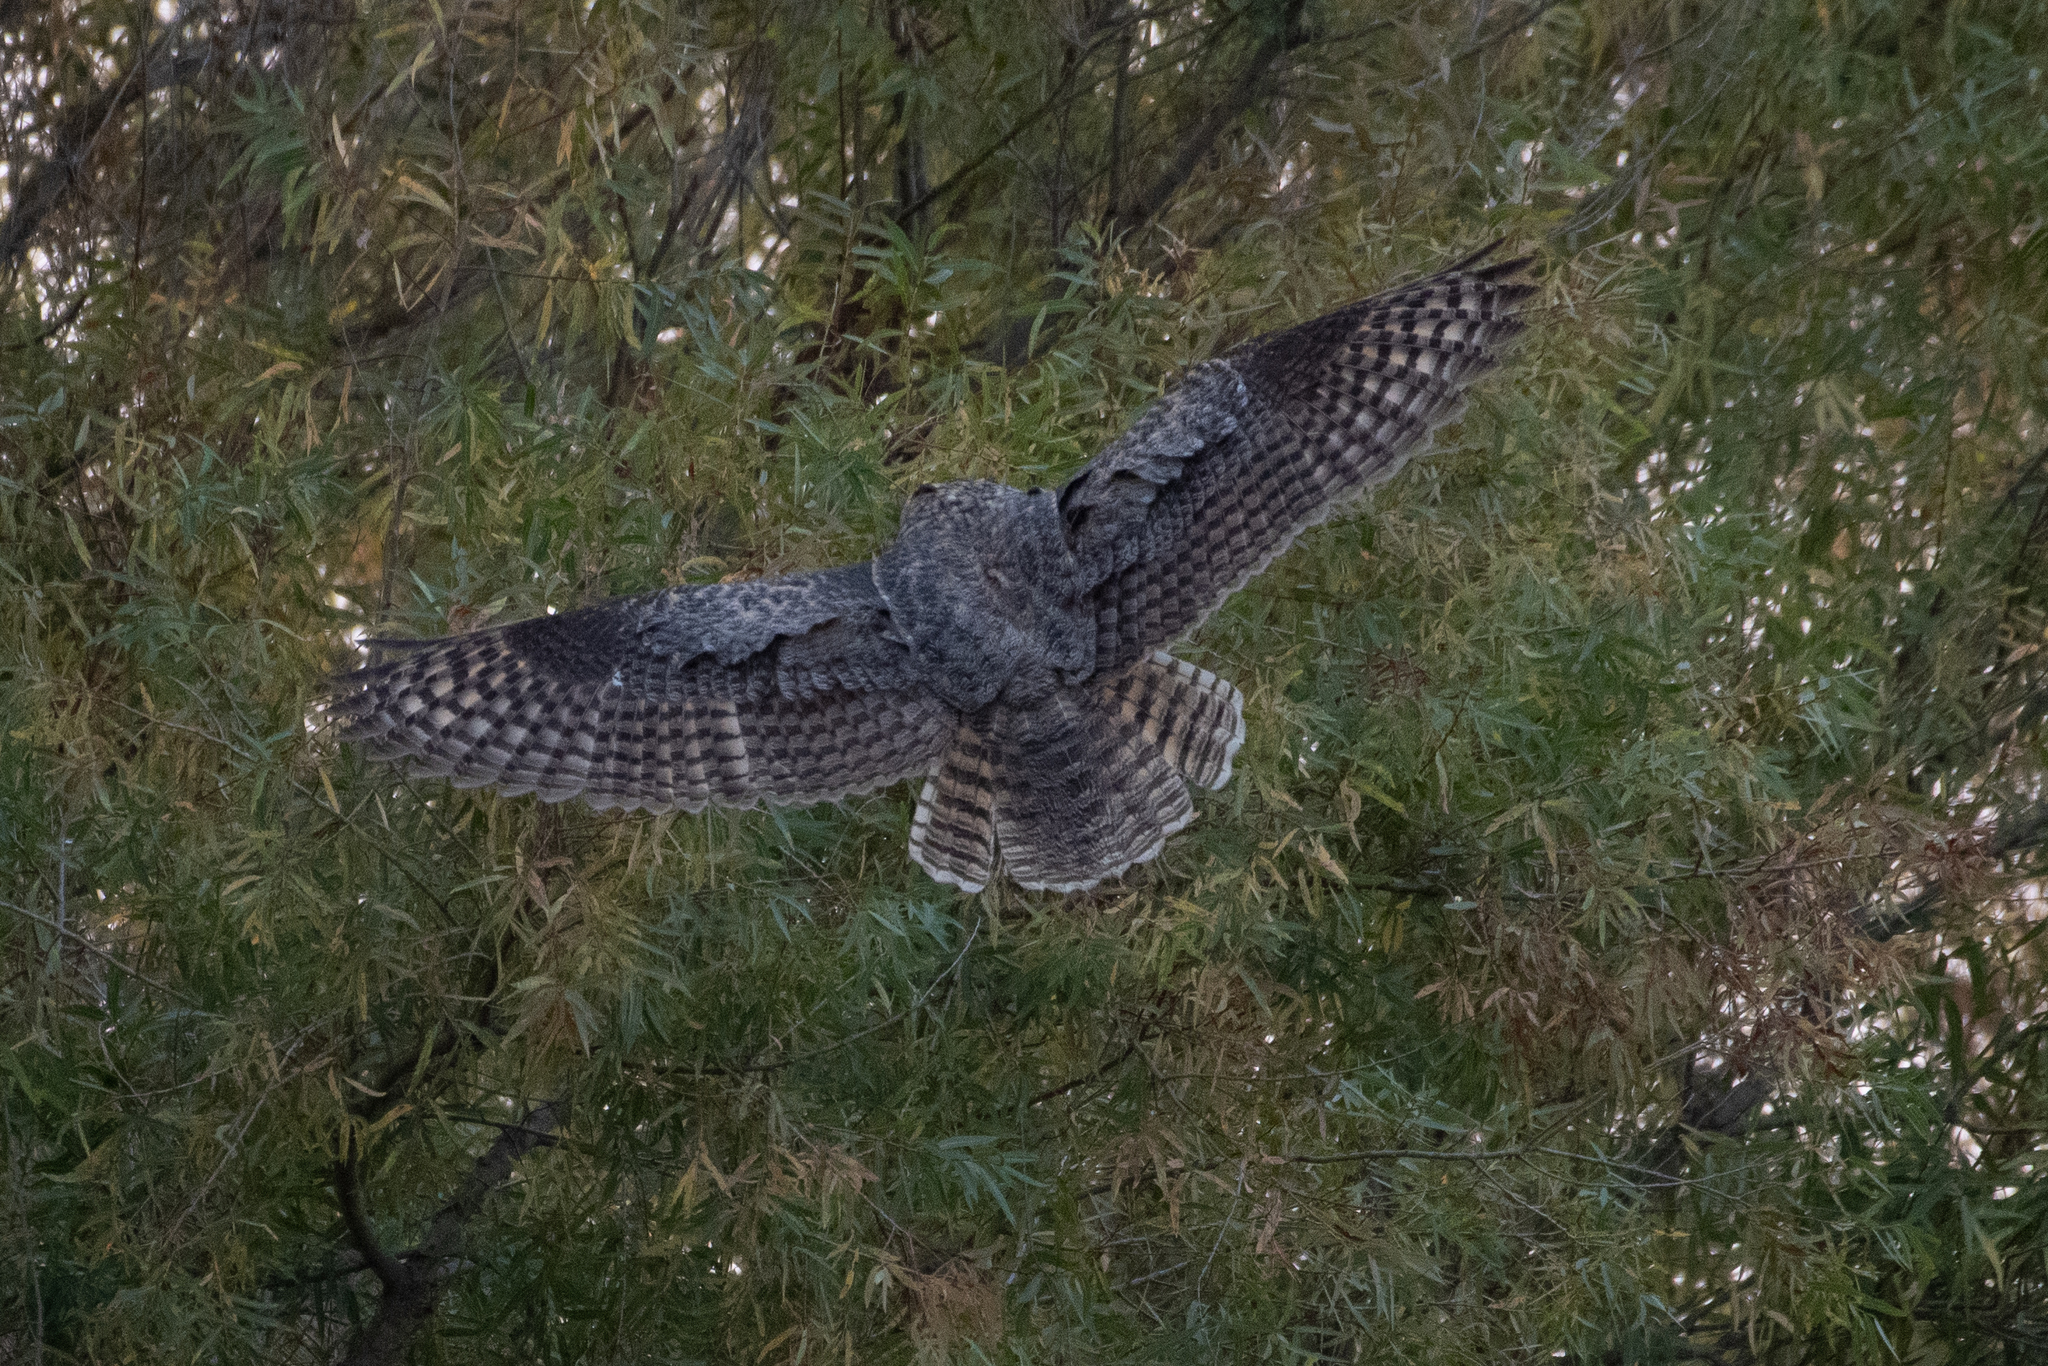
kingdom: Animalia
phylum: Chordata
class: Aves
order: Strigiformes
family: Strigidae
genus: Bubo
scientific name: Bubo virginianus
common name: Great horned owl
